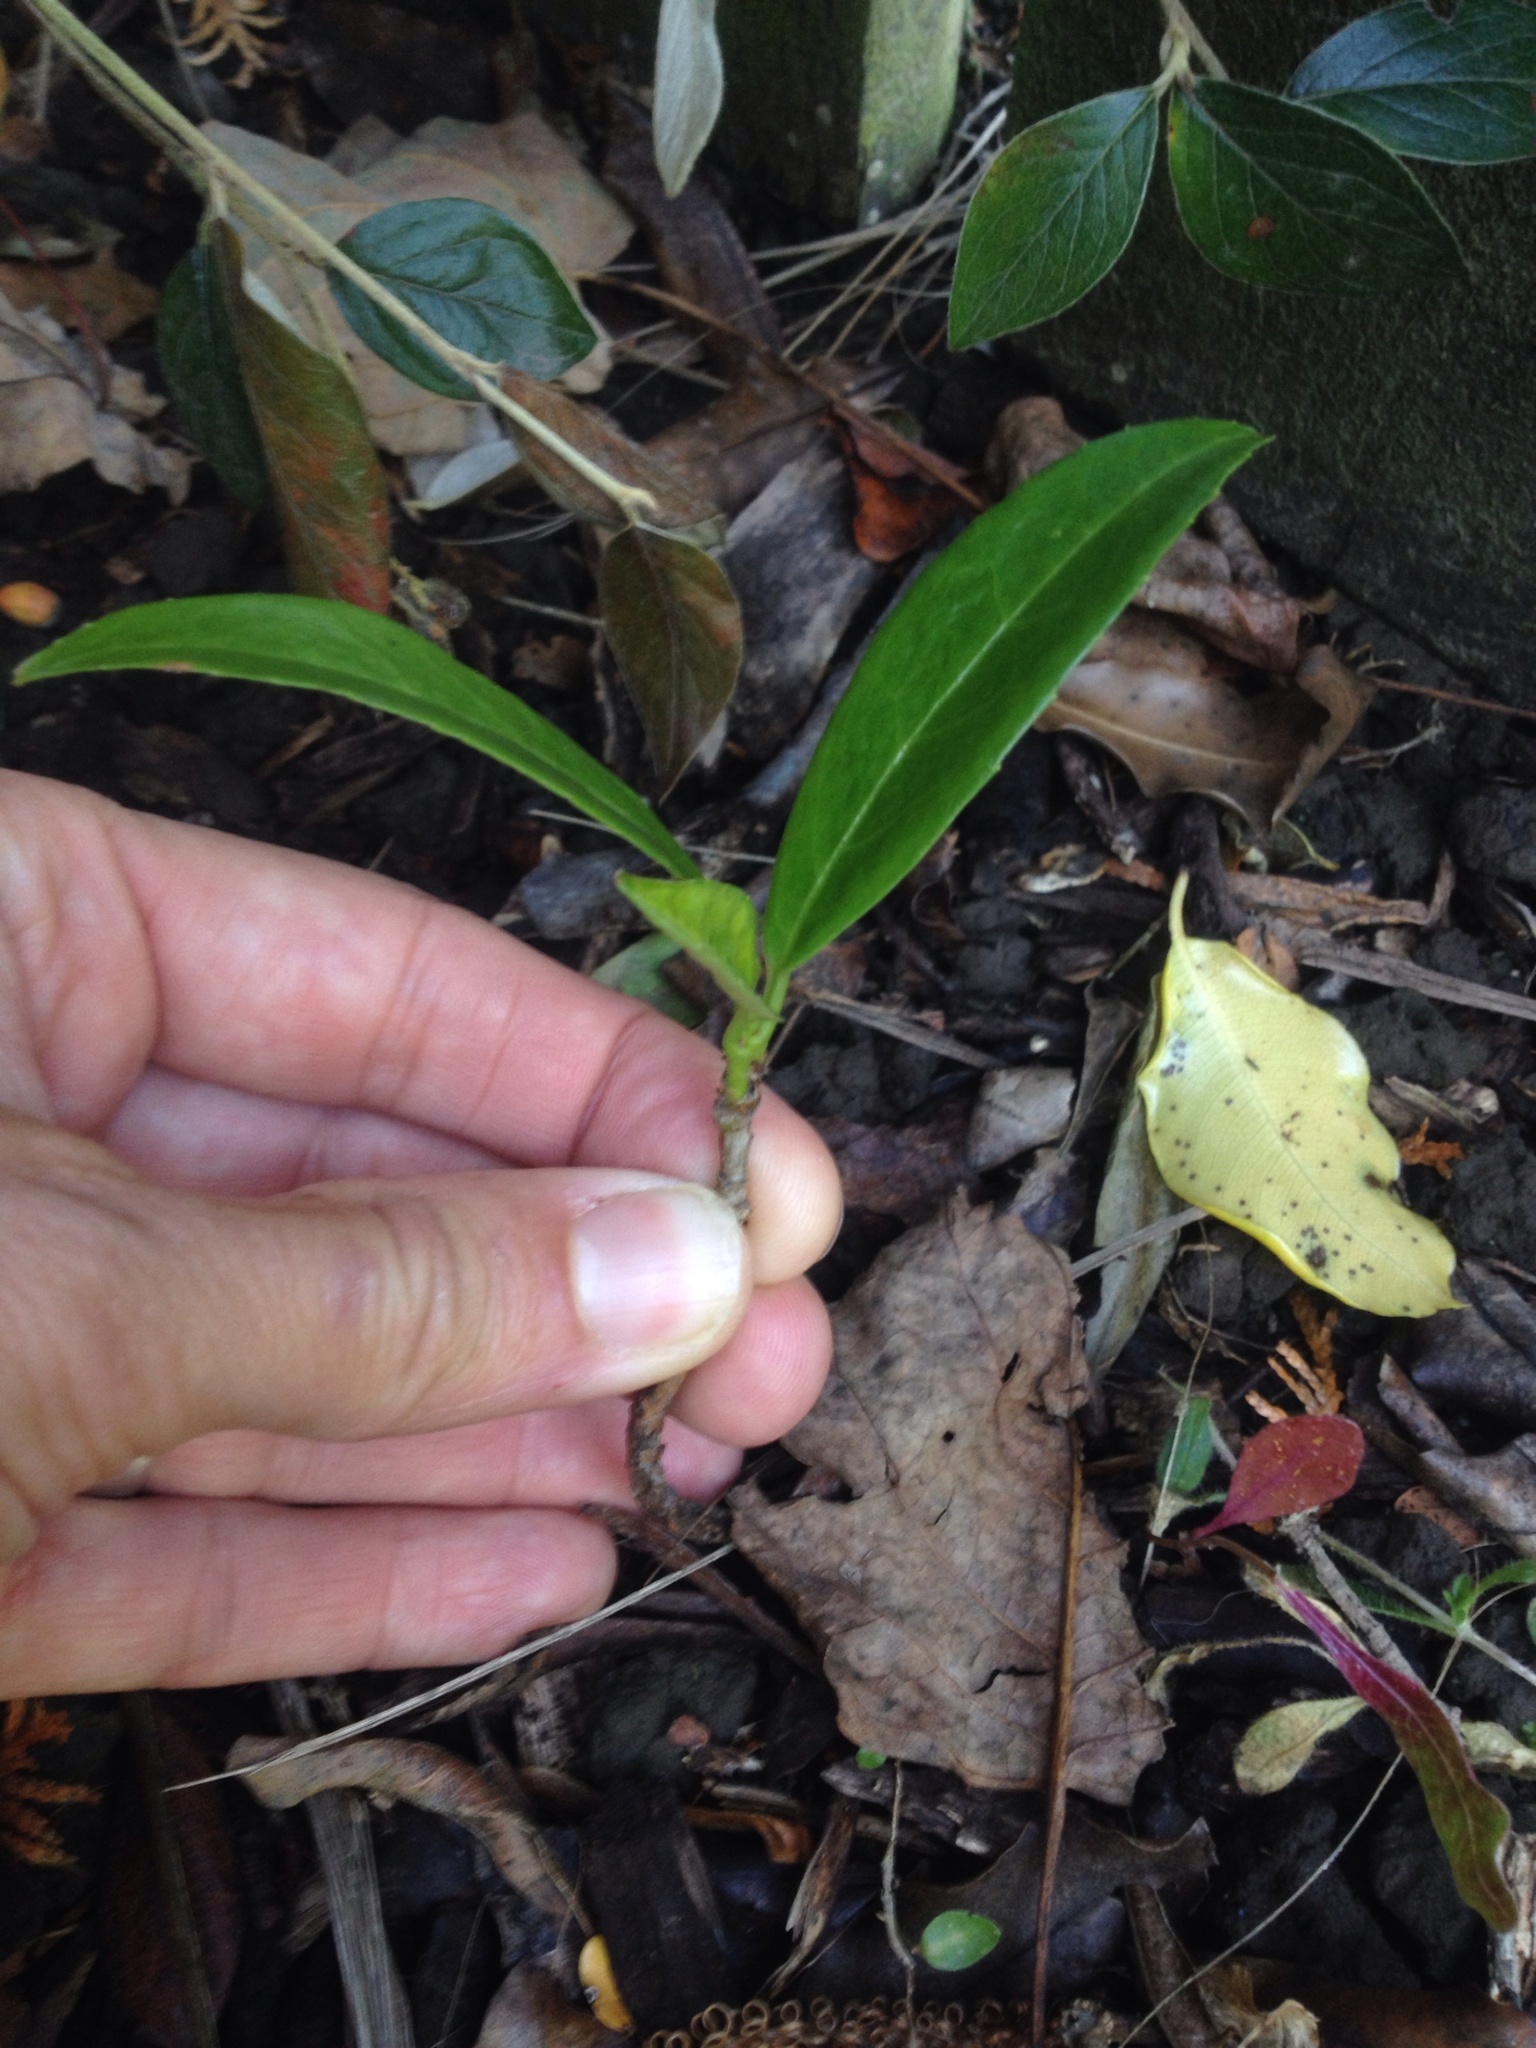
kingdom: Plantae
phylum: Tracheophyta
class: Magnoliopsida
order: Rosales
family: Rosaceae
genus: Prunus
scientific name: Prunus laurocerasus
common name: Cherry laurel
